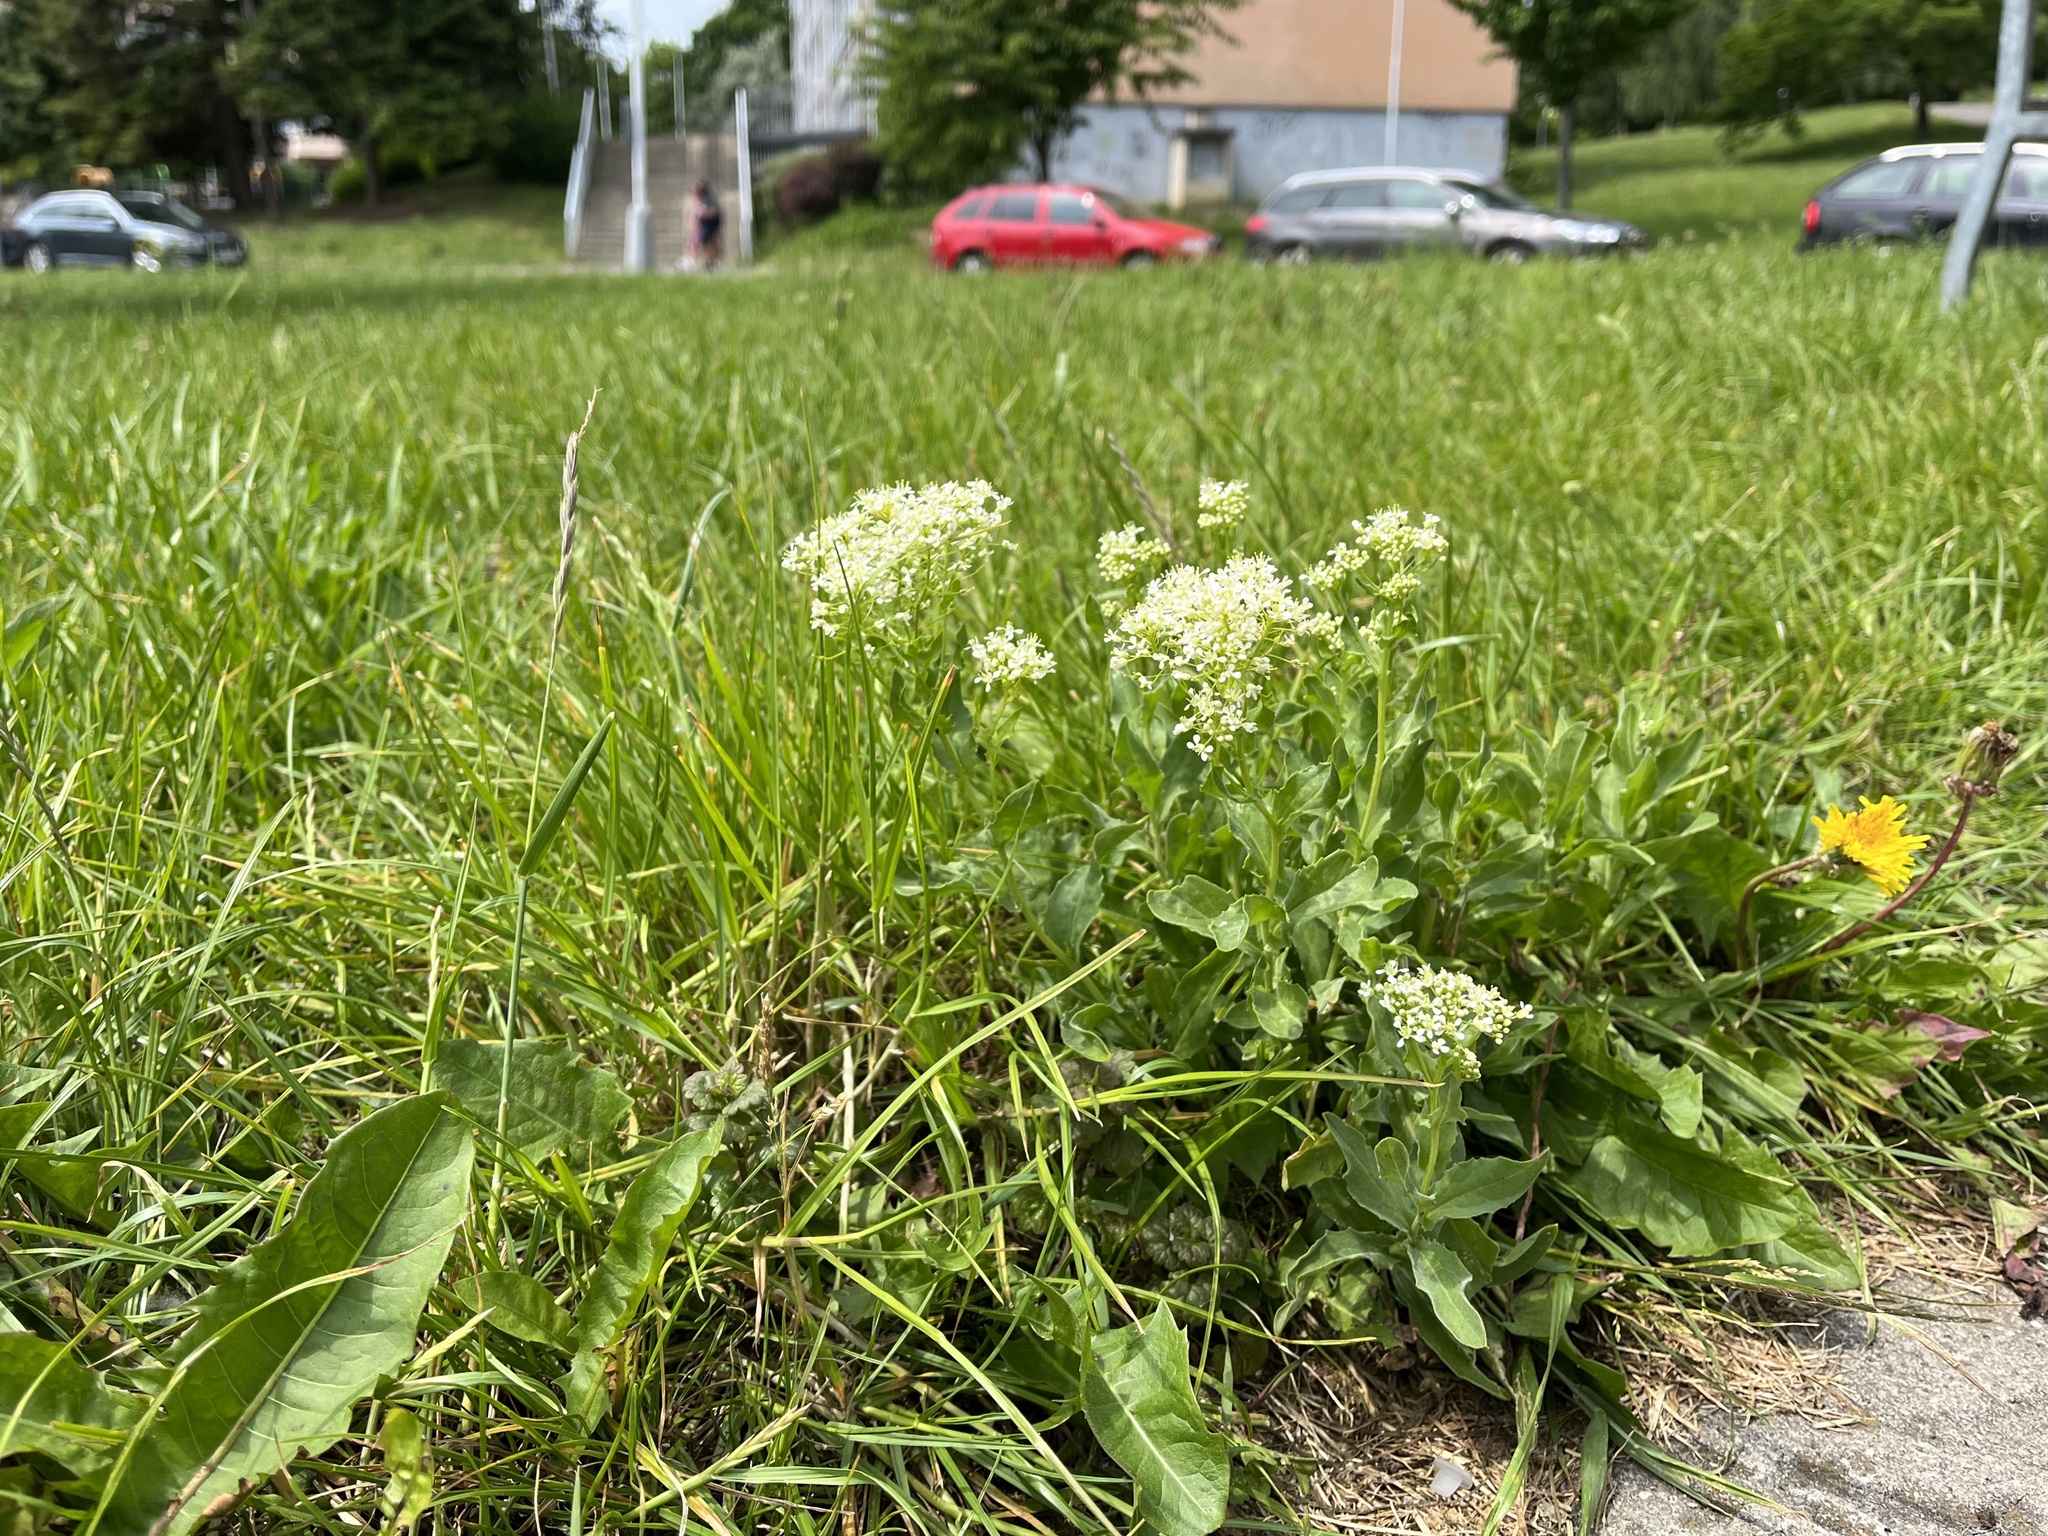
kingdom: Plantae
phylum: Tracheophyta
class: Magnoliopsida
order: Brassicales
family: Brassicaceae
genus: Lepidium
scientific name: Lepidium draba
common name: Hoary cress
